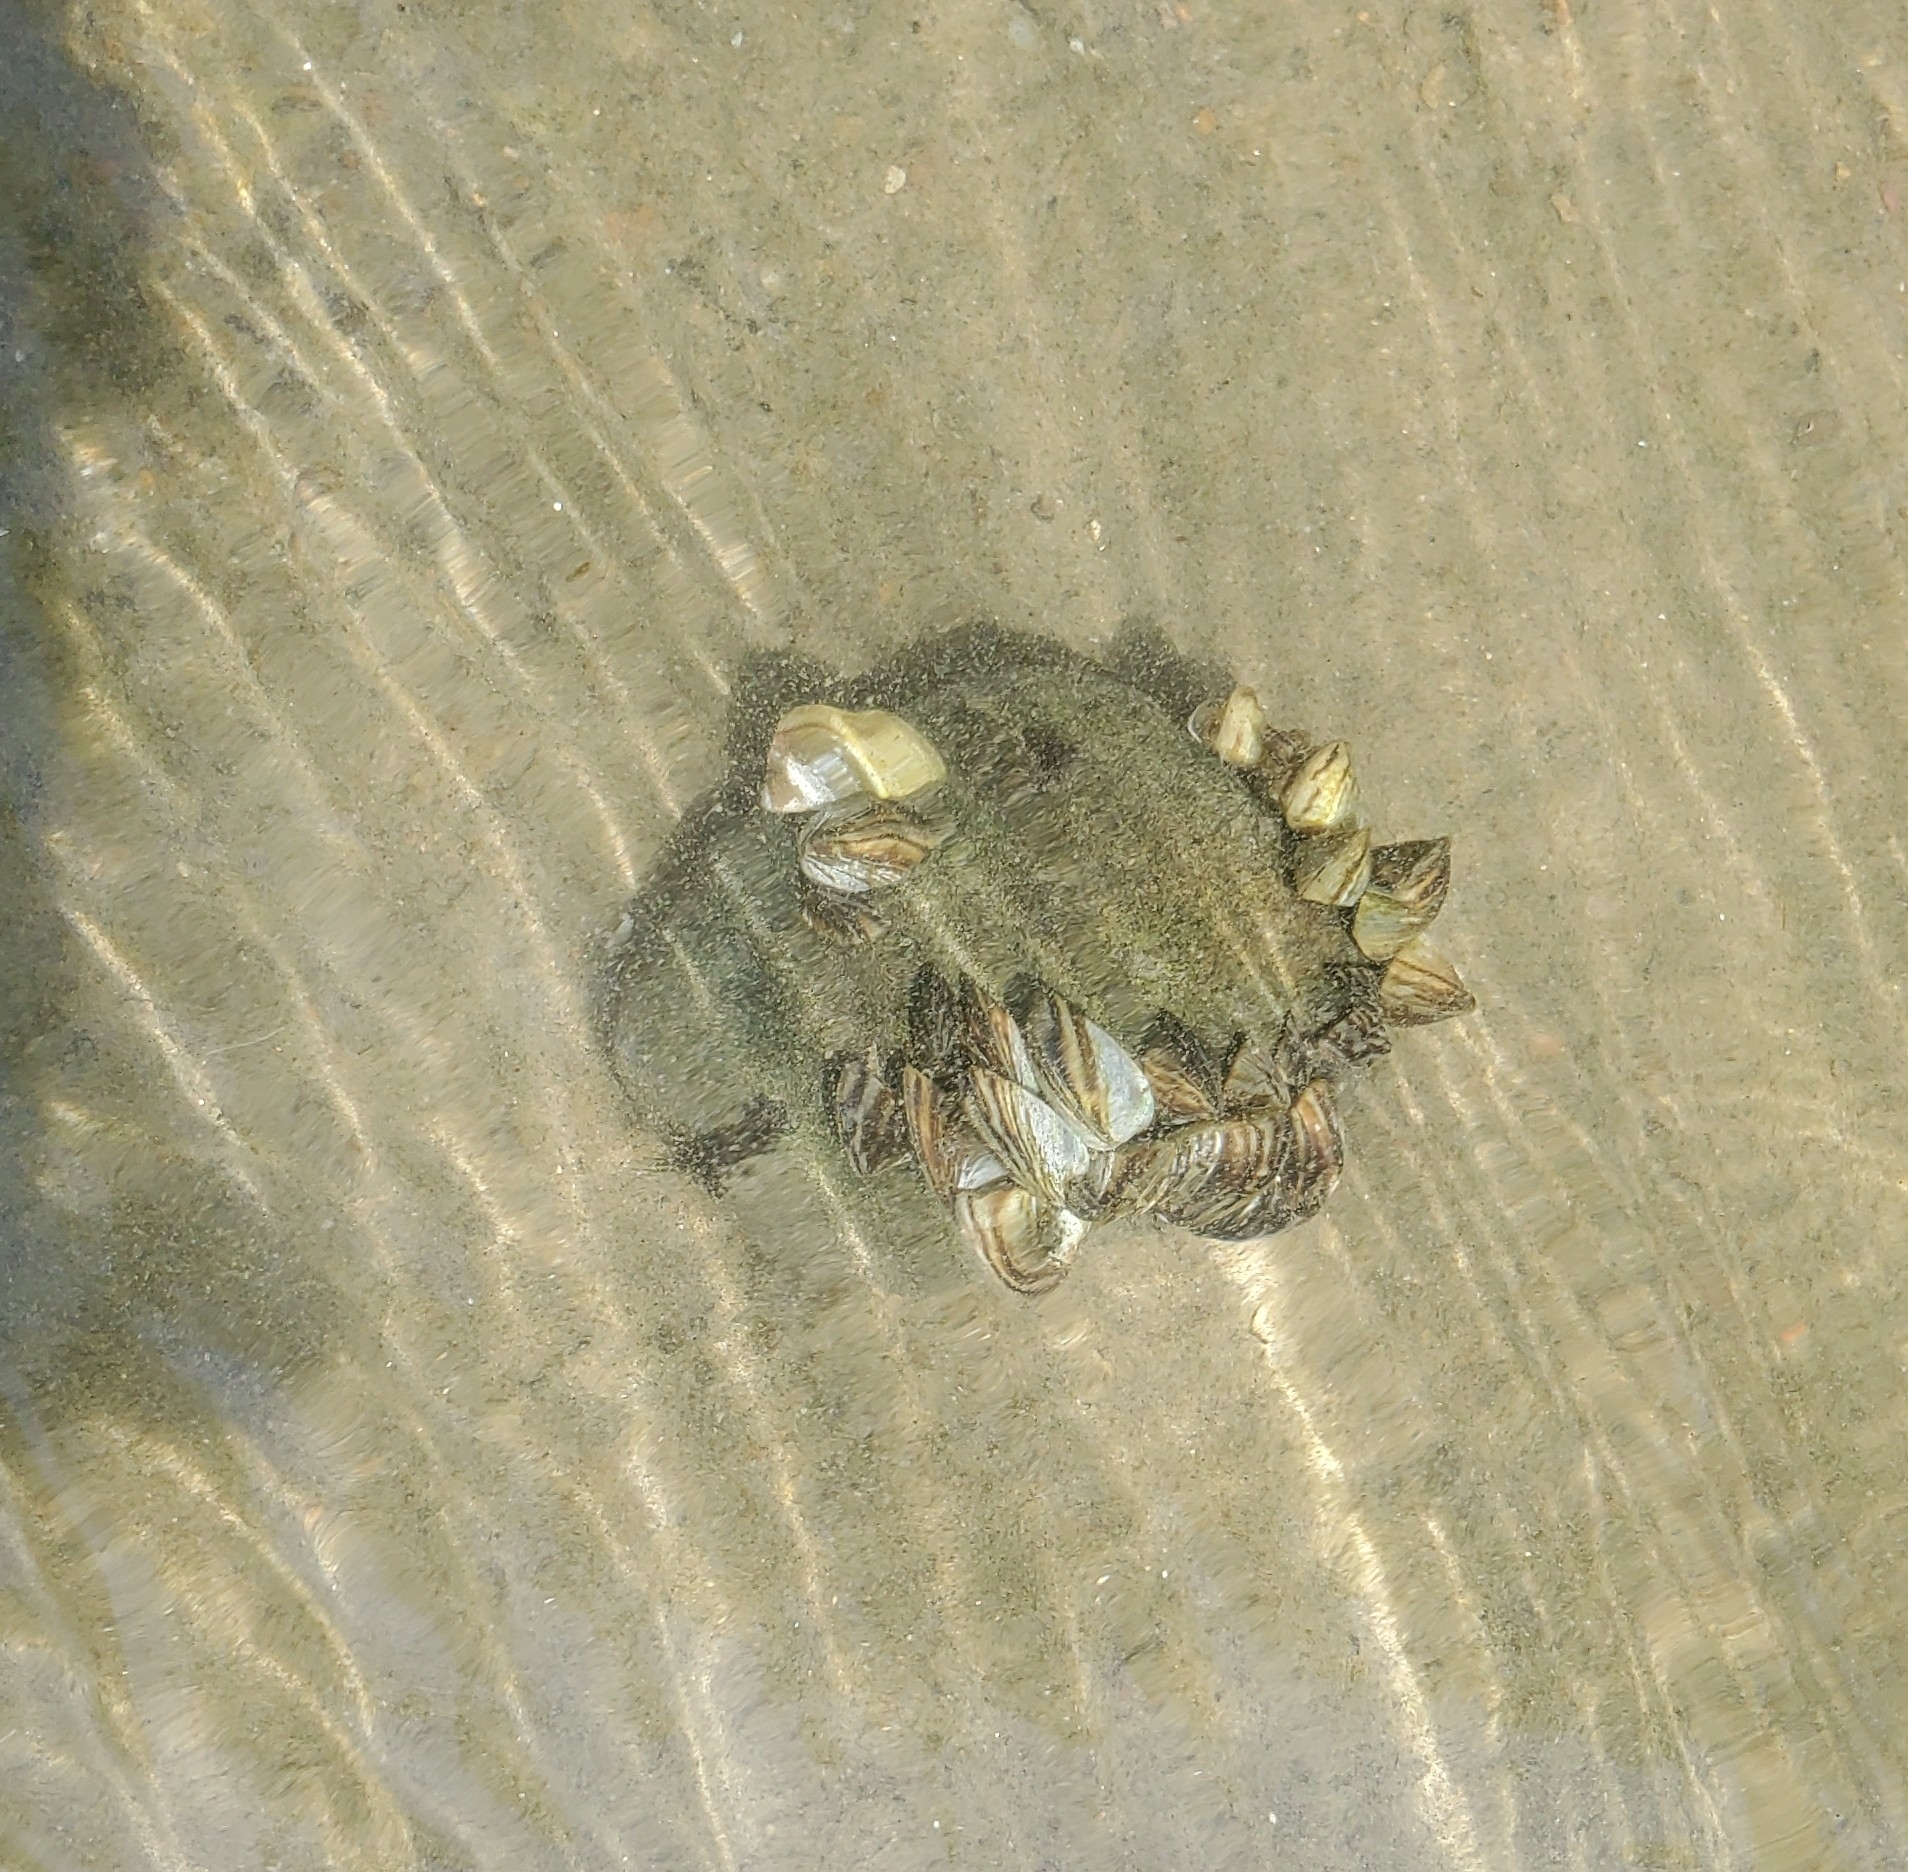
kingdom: Animalia
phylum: Mollusca
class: Bivalvia
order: Myida
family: Dreissenidae
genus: Dreissena
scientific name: Dreissena polymorpha
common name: Zebra mussel
